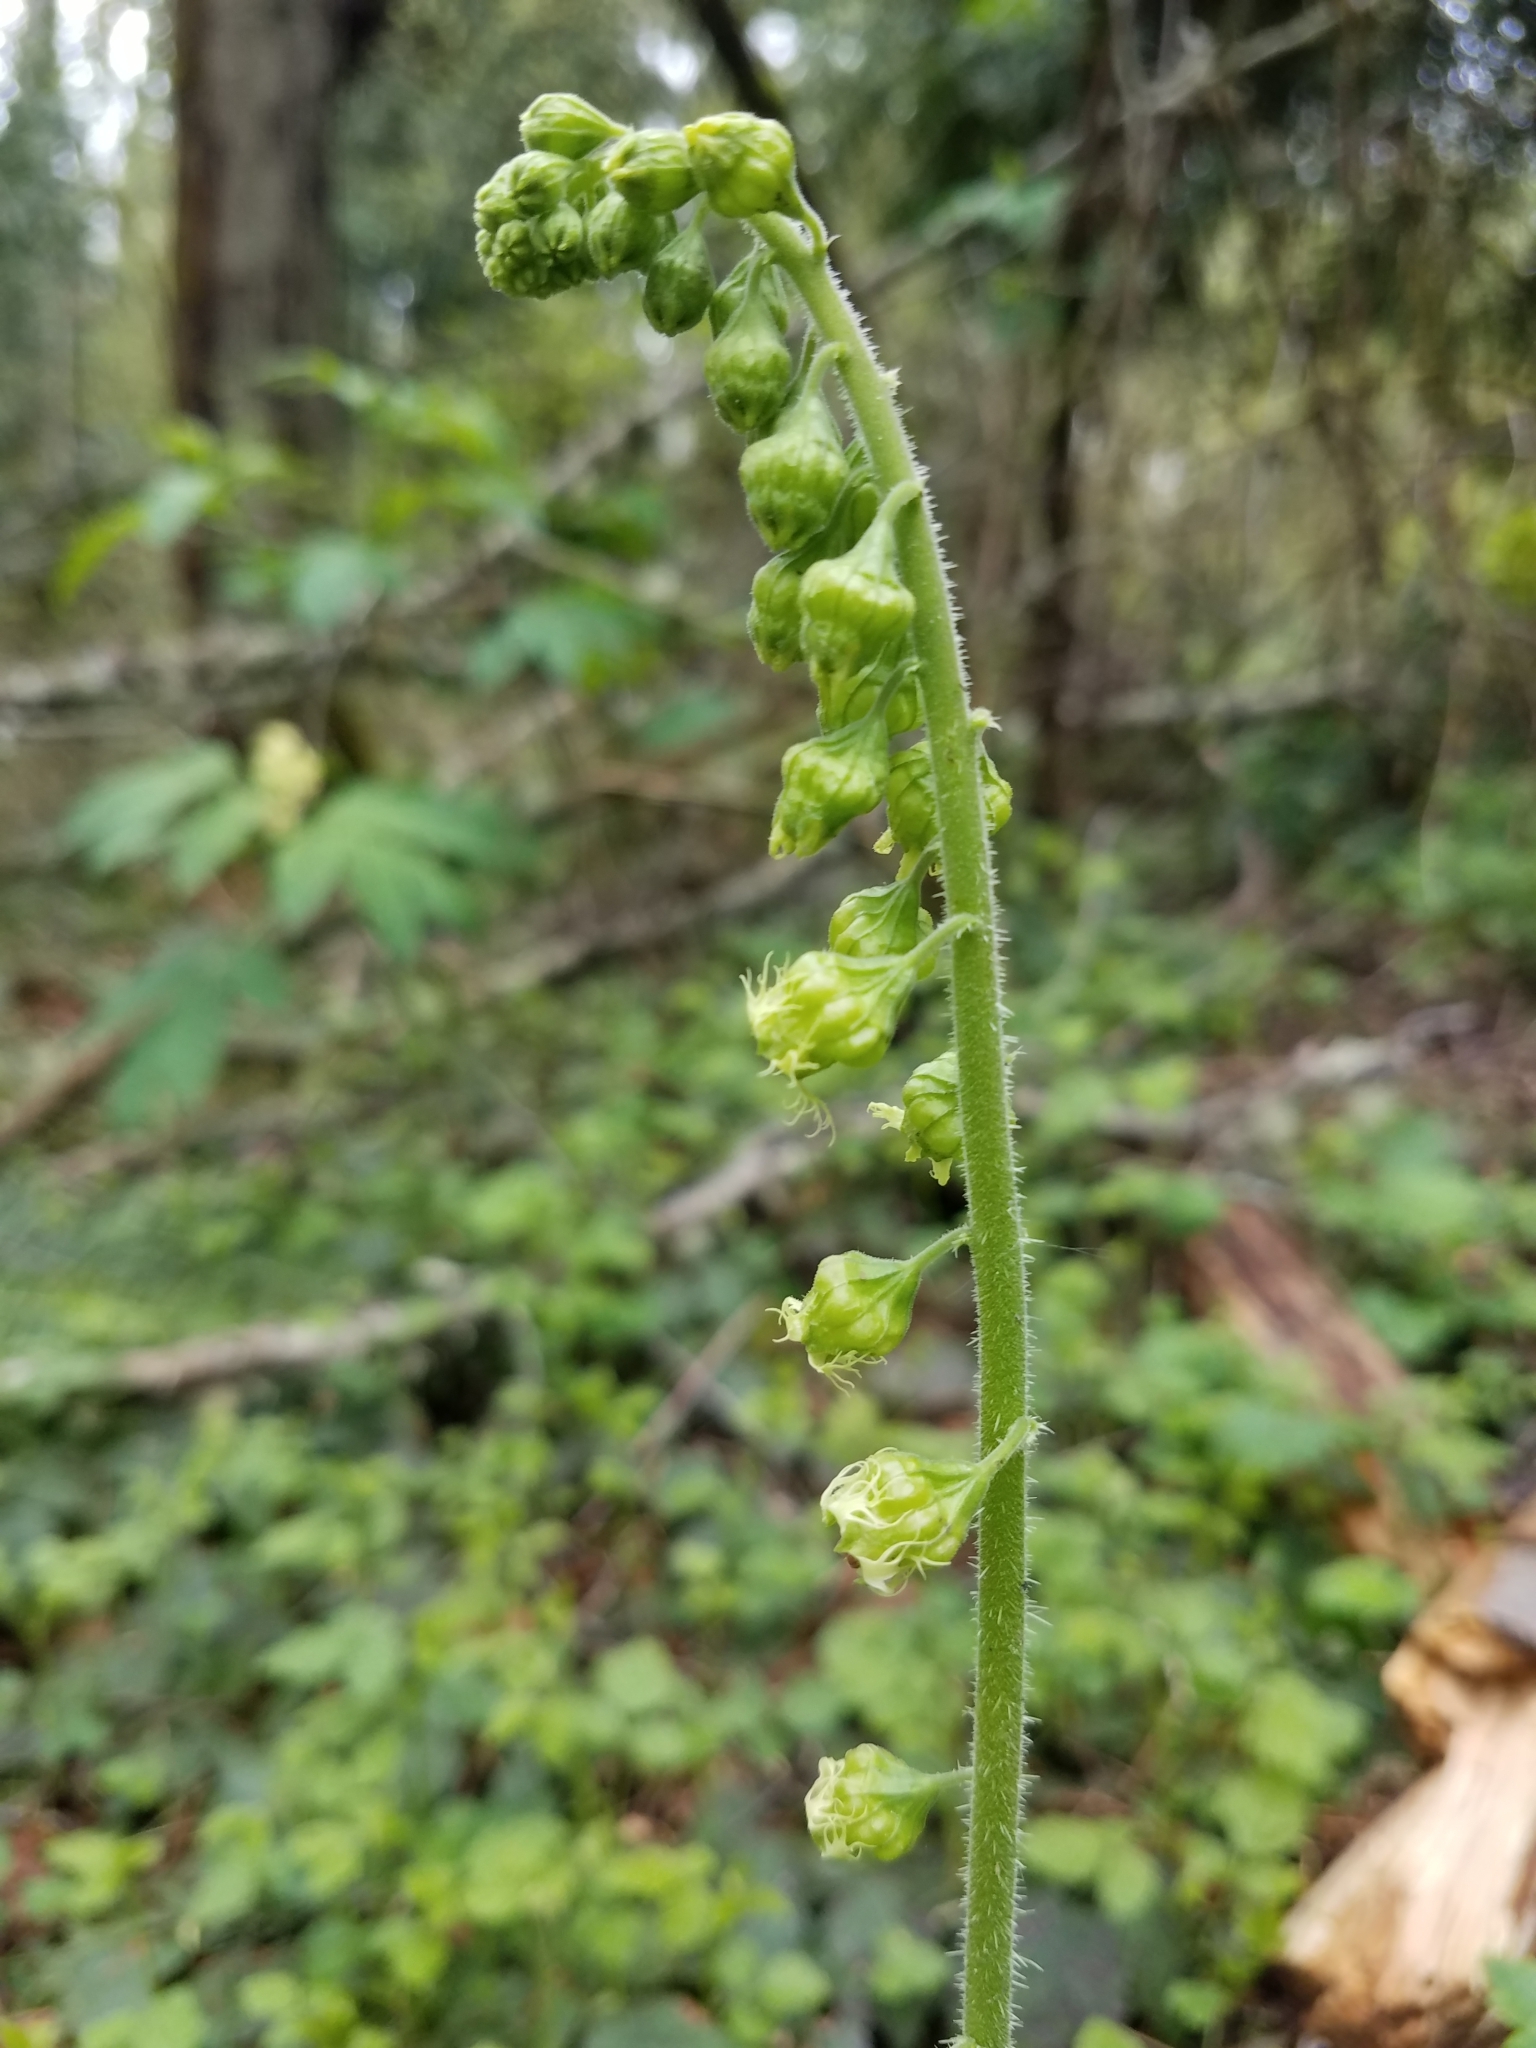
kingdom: Plantae
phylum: Tracheophyta
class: Magnoliopsida
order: Saxifragales
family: Saxifragaceae
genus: Tellima
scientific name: Tellima grandiflora
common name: Fringecups
